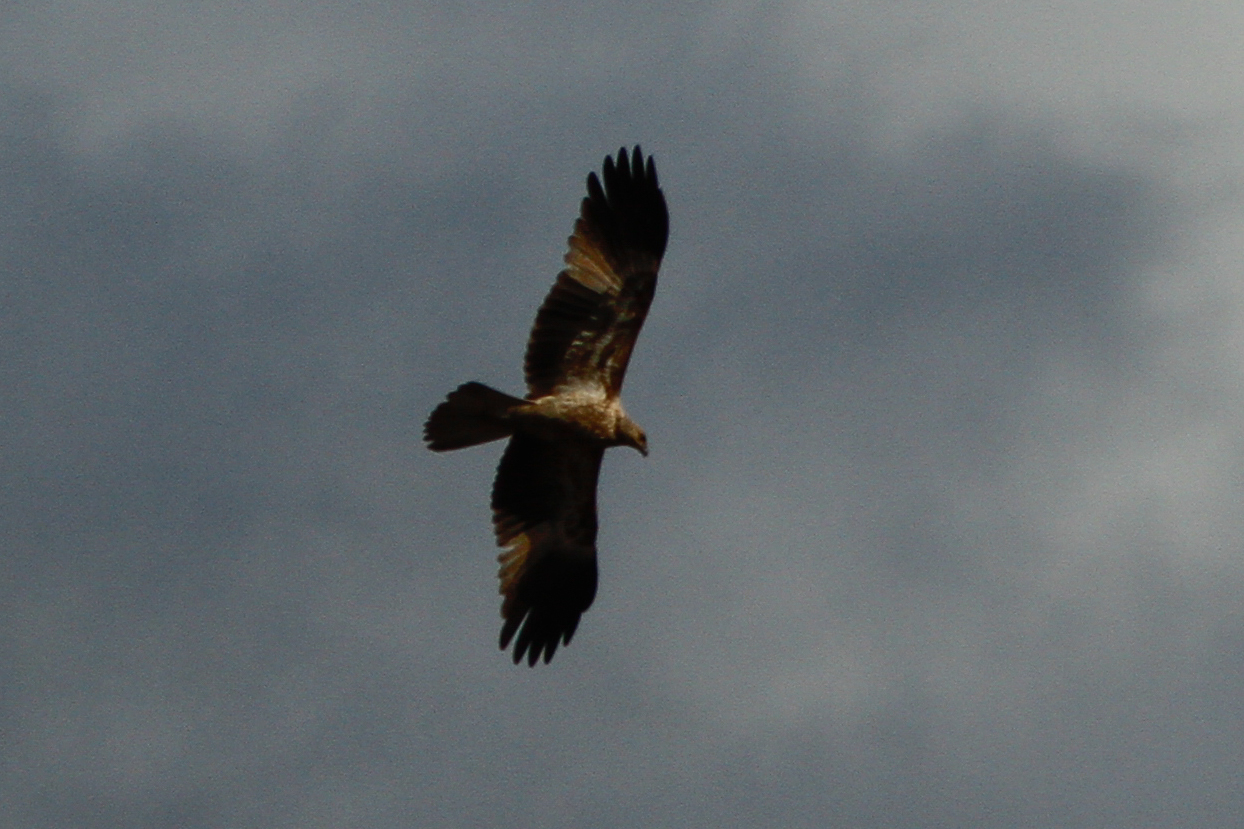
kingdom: Animalia
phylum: Chordata
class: Aves
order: Accipitriformes
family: Accipitridae
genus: Haliastur
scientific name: Haliastur sphenurus
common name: Whistling kite
